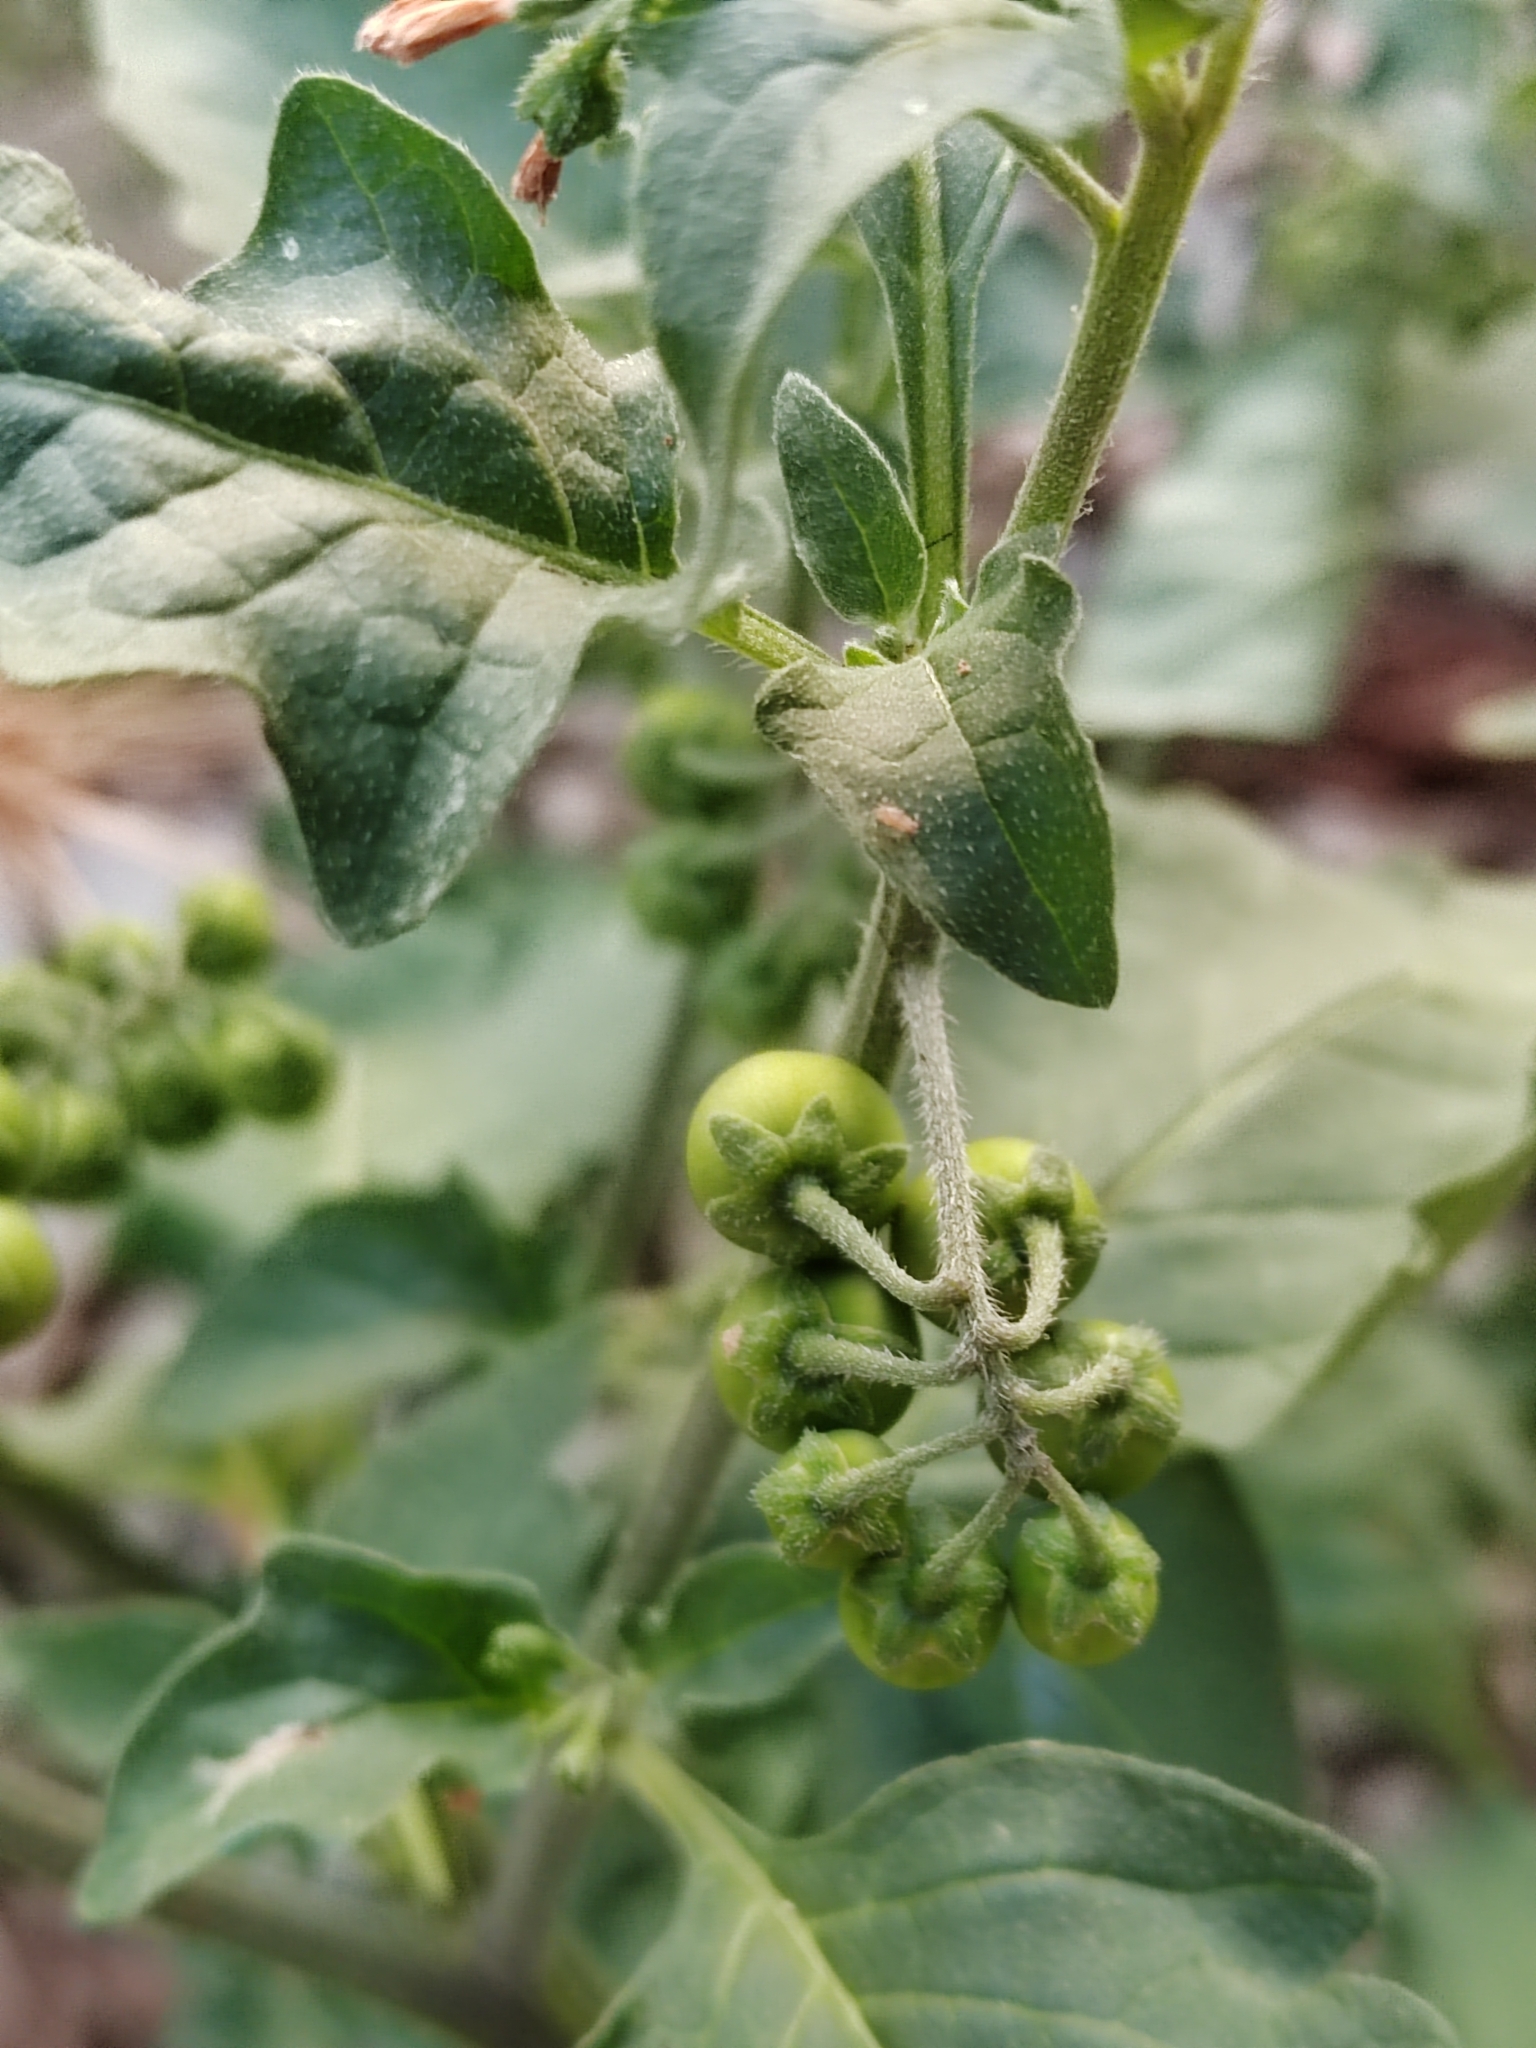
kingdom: Plantae
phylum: Tracheophyta
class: Magnoliopsida
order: Solanales
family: Solanaceae
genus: Solanum
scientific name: Solanum nigrum
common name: Black nightshade
